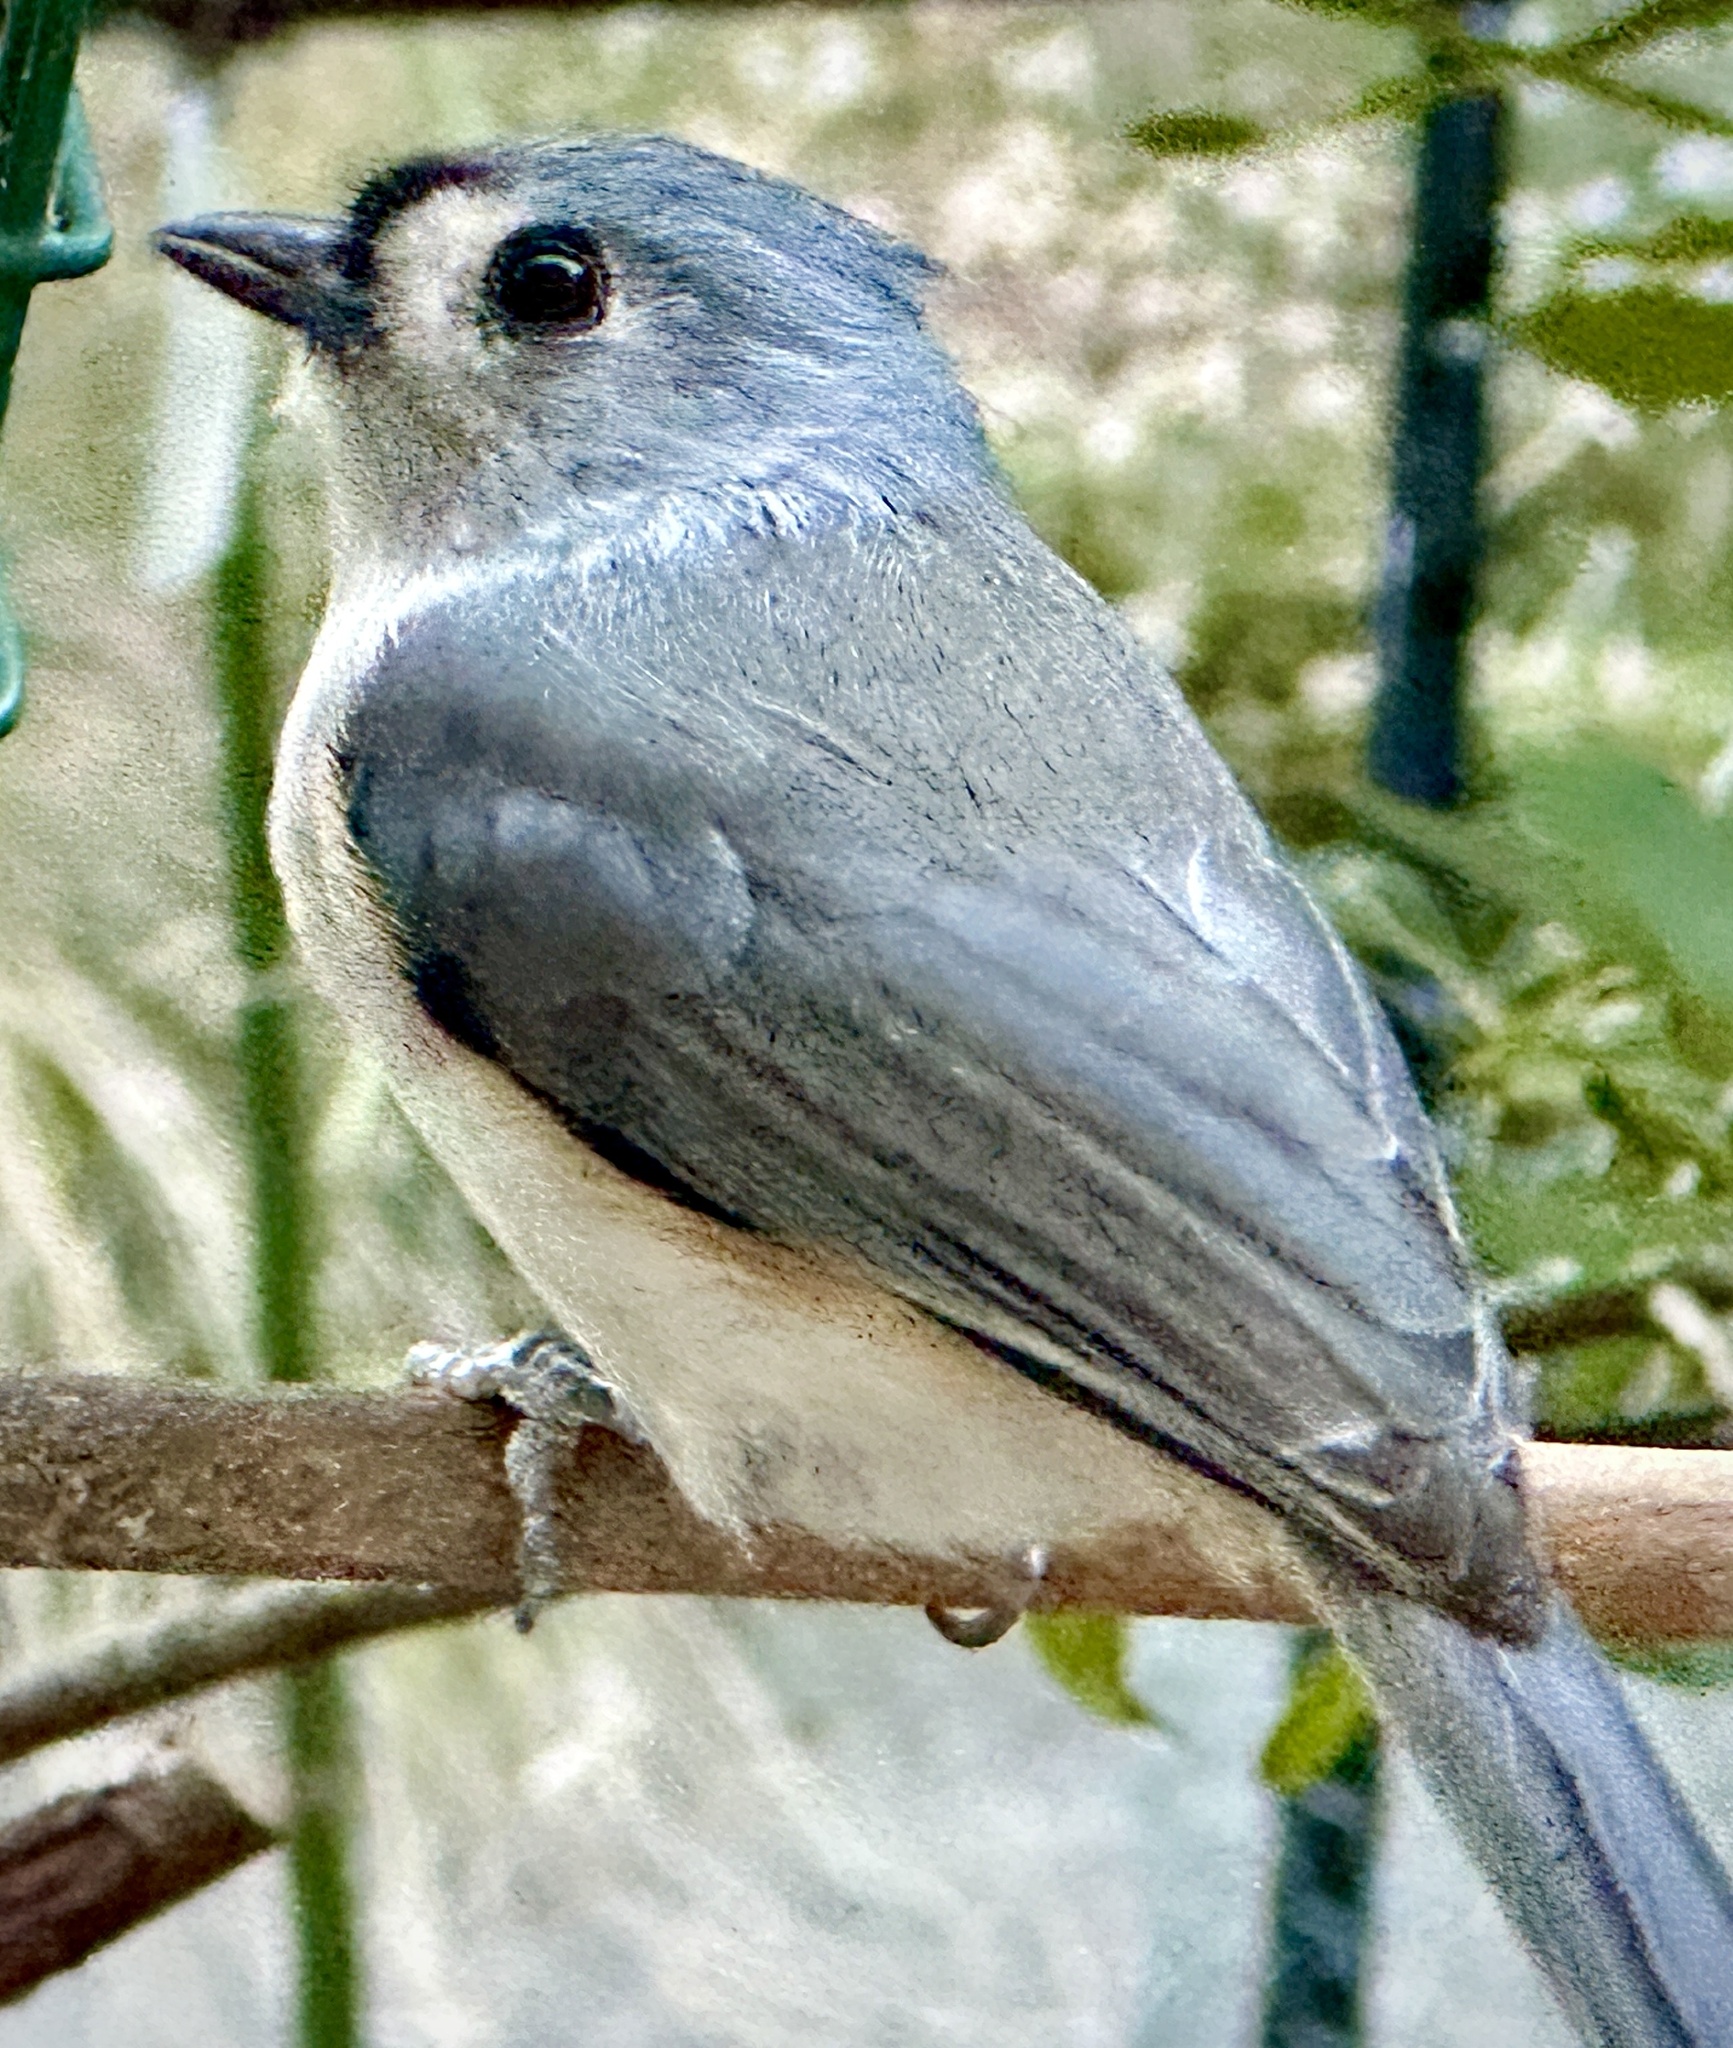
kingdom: Animalia
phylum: Chordata
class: Aves
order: Passeriformes
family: Paridae
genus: Baeolophus
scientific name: Baeolophus bicolor
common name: Tufted titmouse
